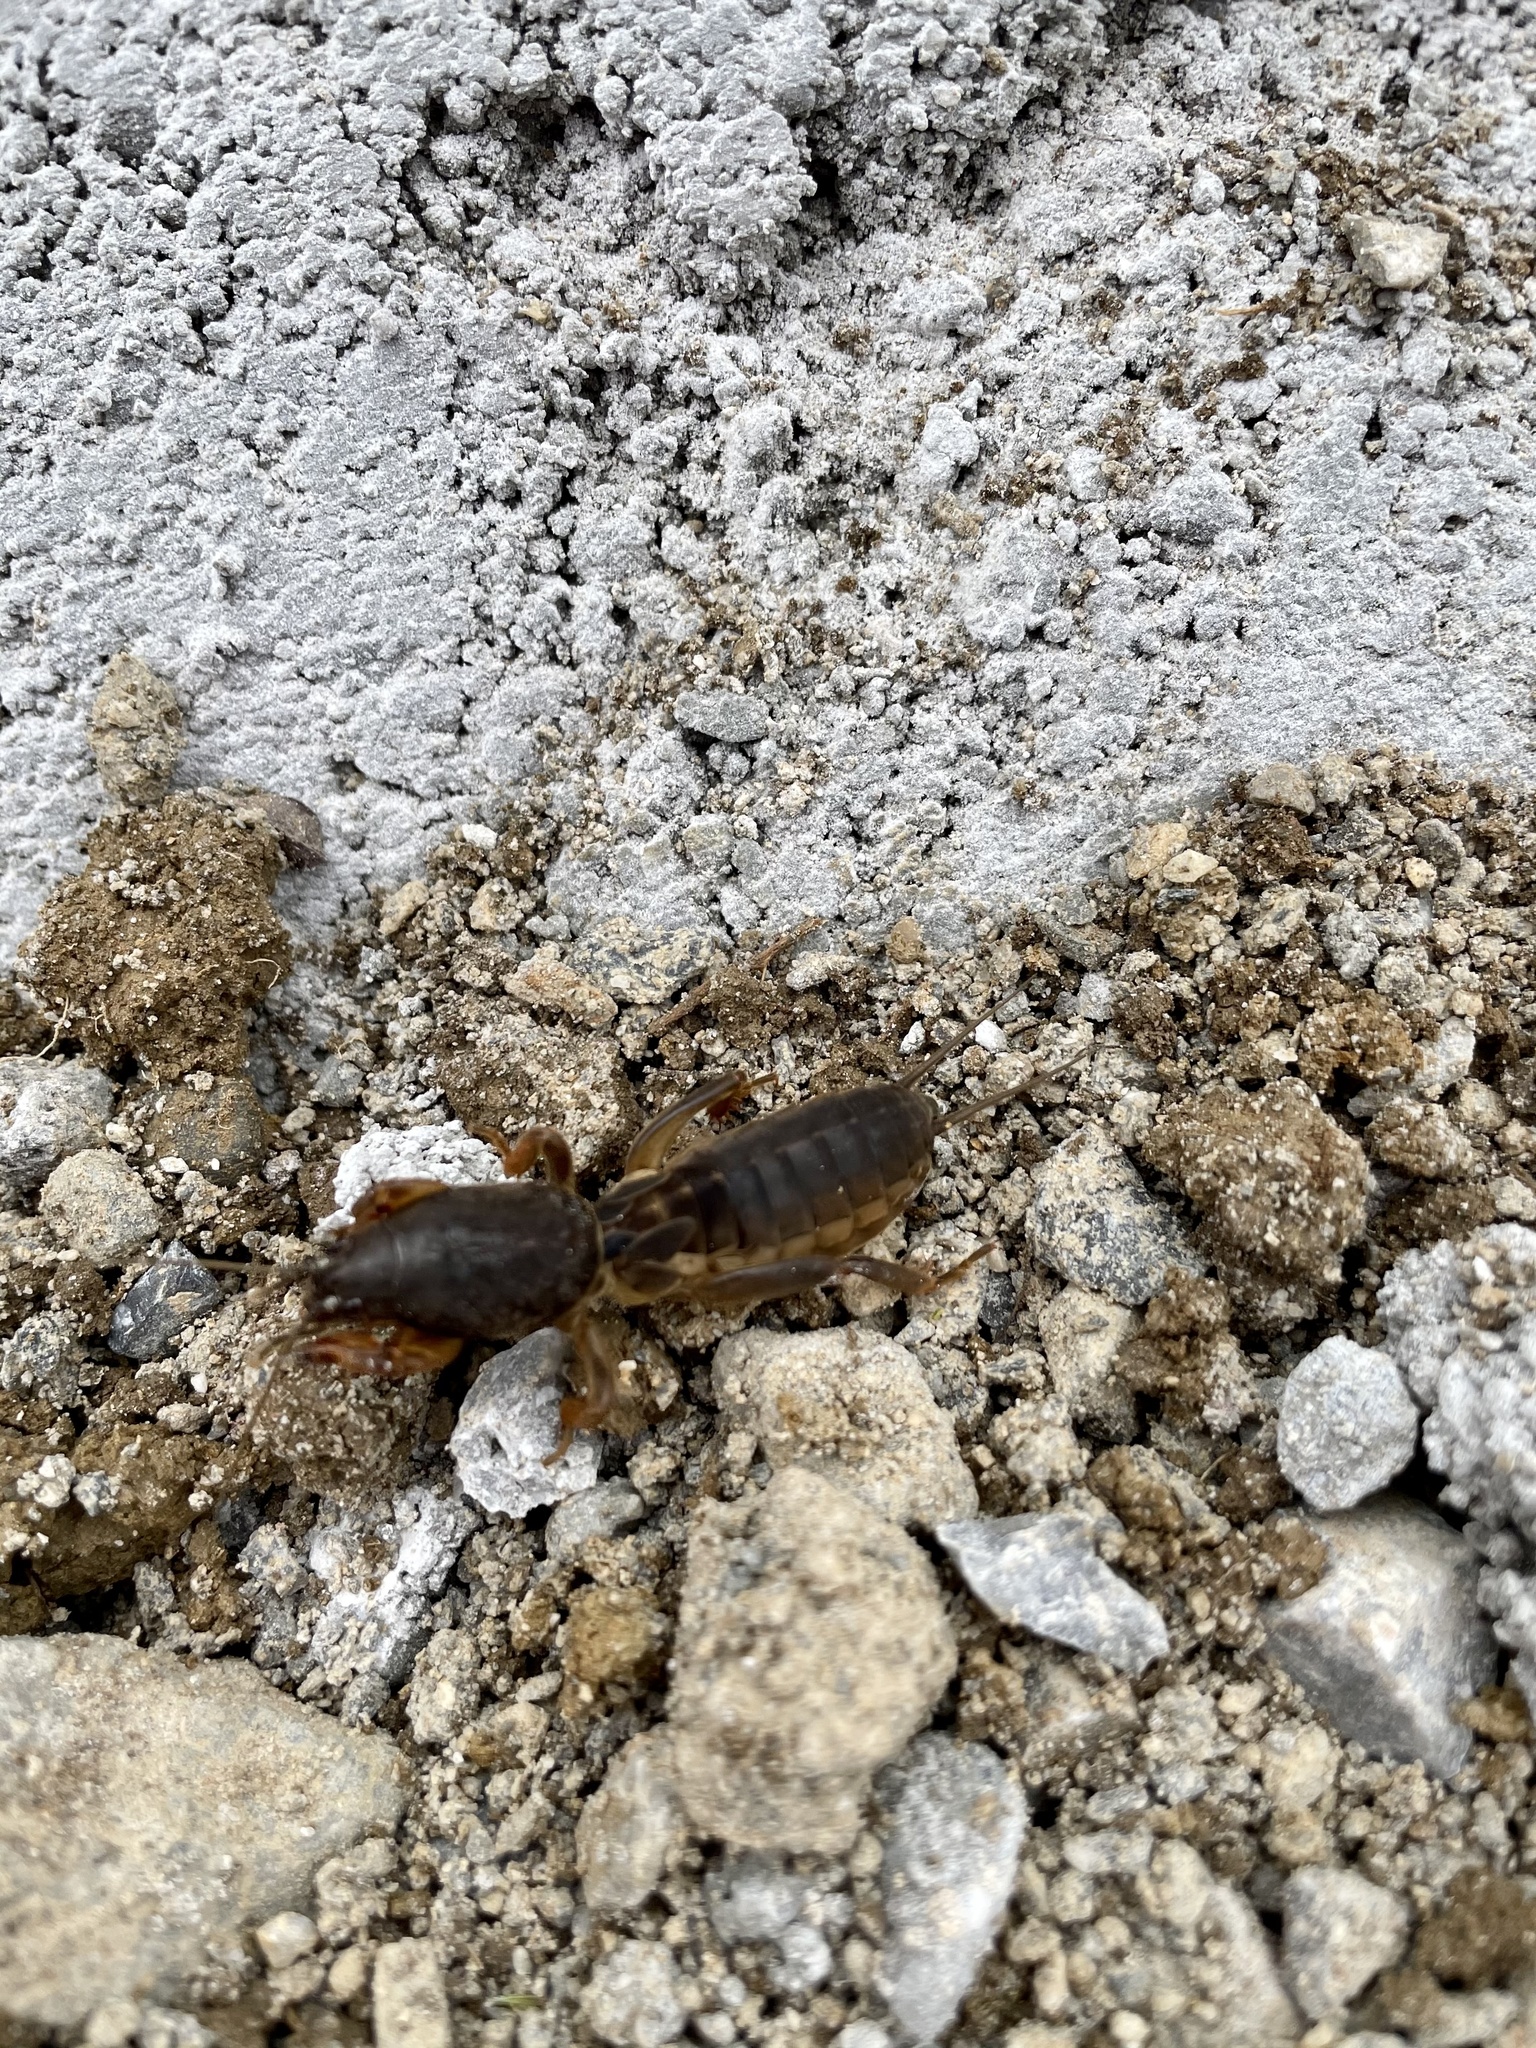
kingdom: Animalia
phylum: Arthropoda
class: Insecta
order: Orthoptera
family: Gryllotalpidae
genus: Gryllotalpa
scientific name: Gryllotalpa gryllotalpa
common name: European mole cricket
